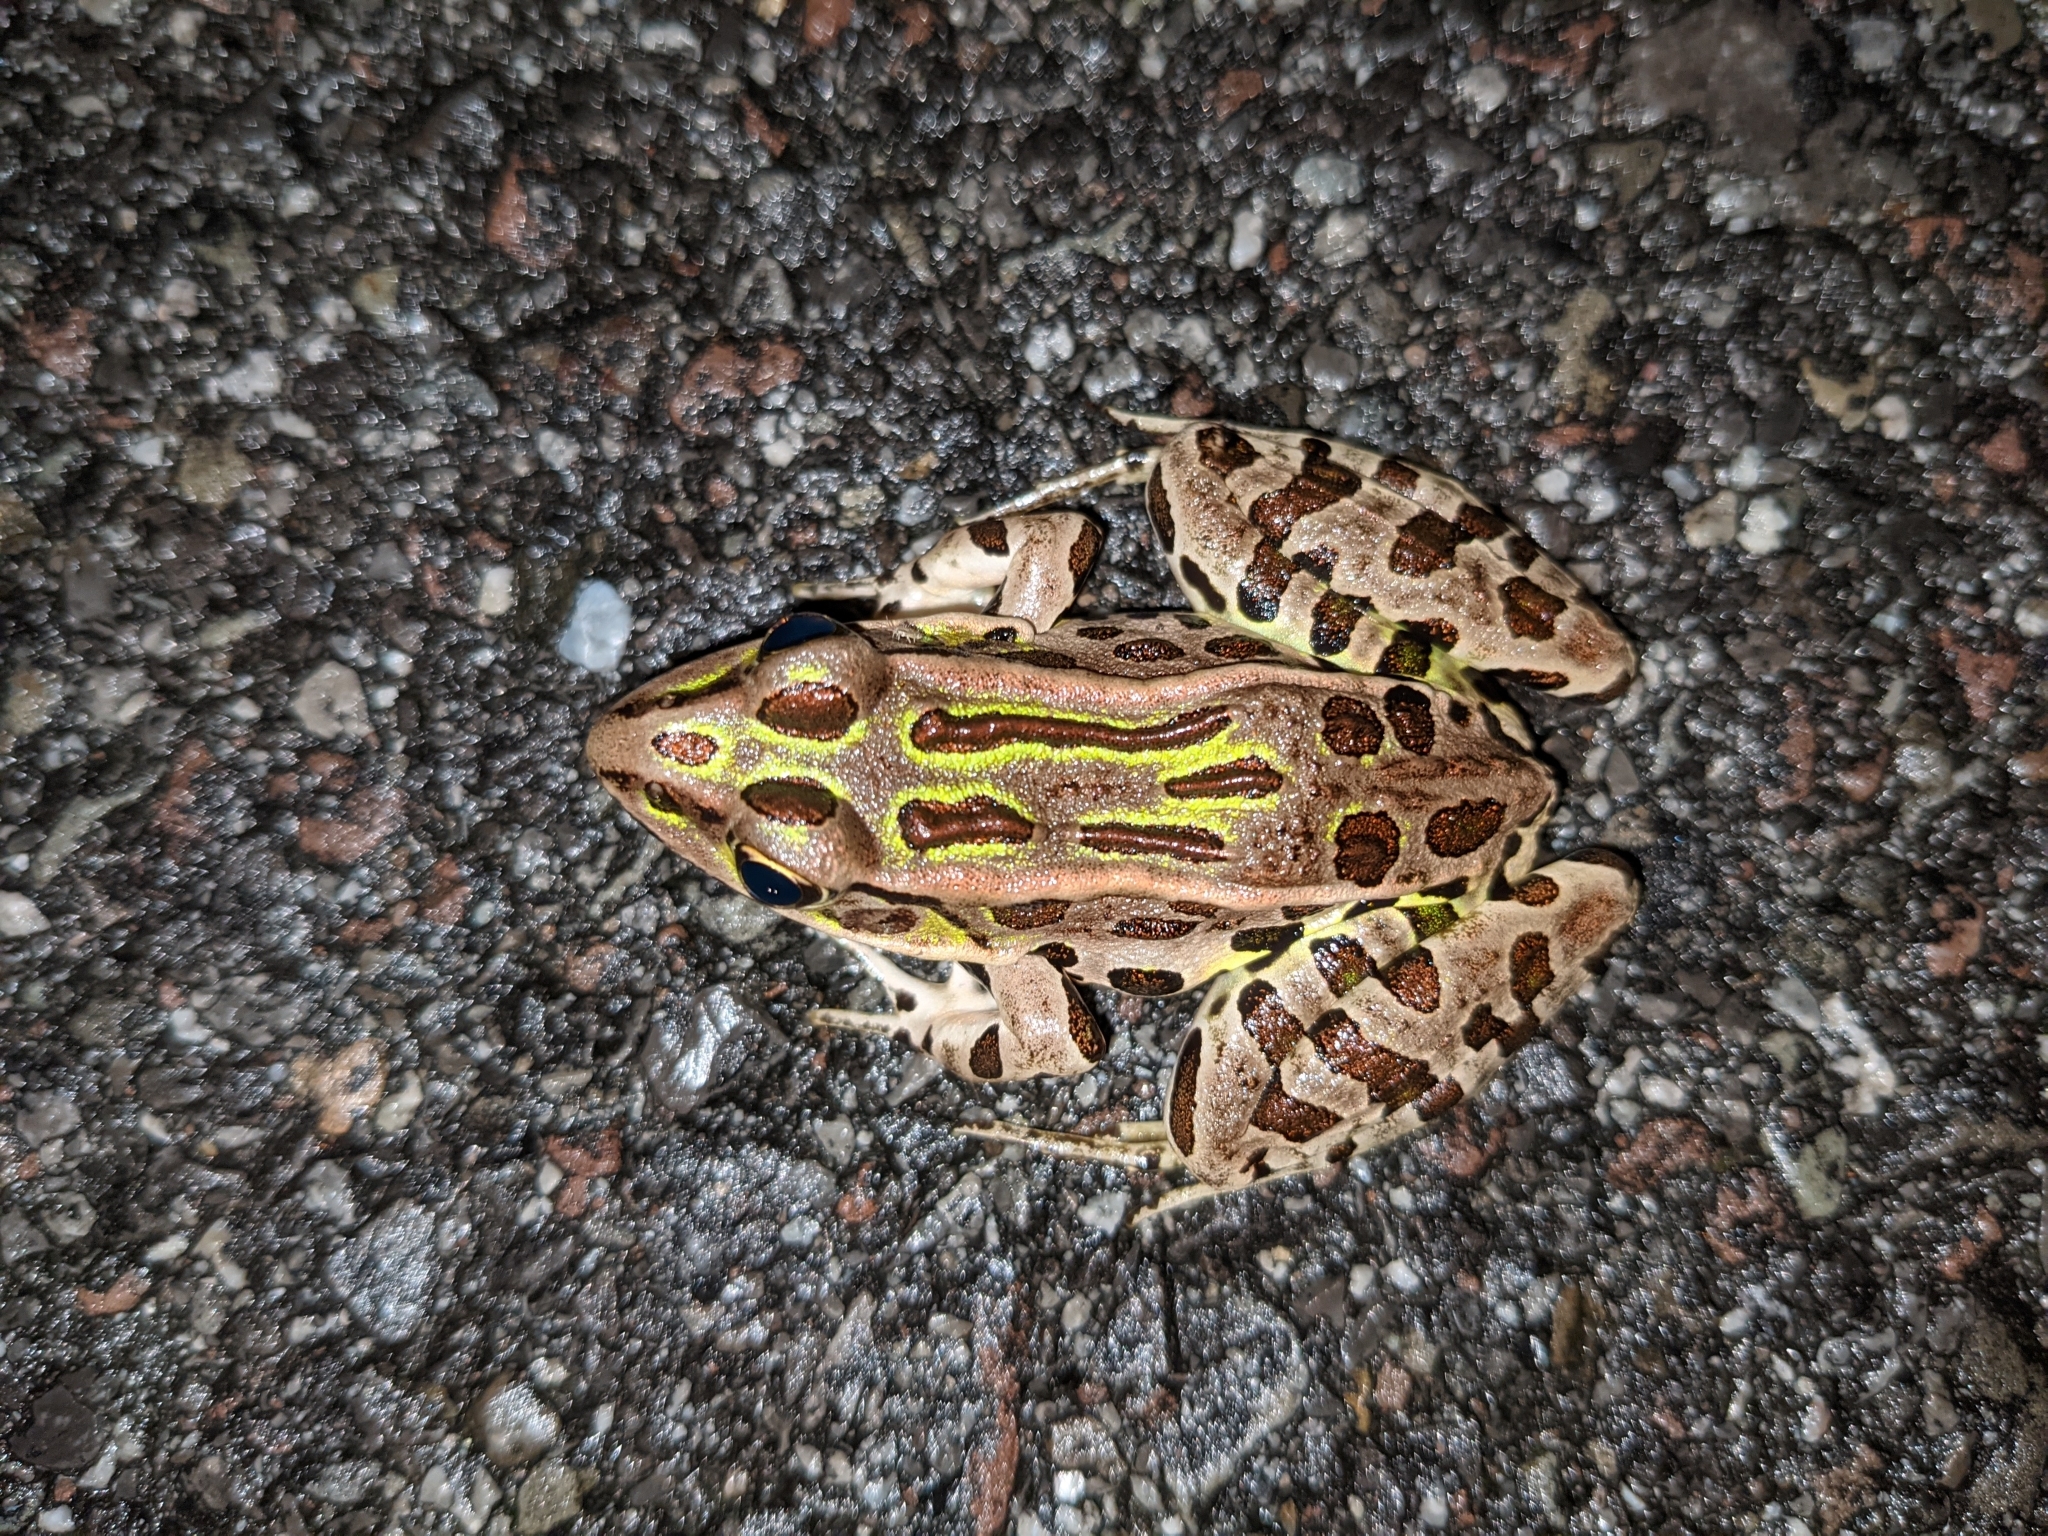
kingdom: Animalia
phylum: Chordata
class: Amphibia
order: Anura
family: Ranidae
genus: Lithobates
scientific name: Lithobates pipiens
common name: Northern leopard frog
